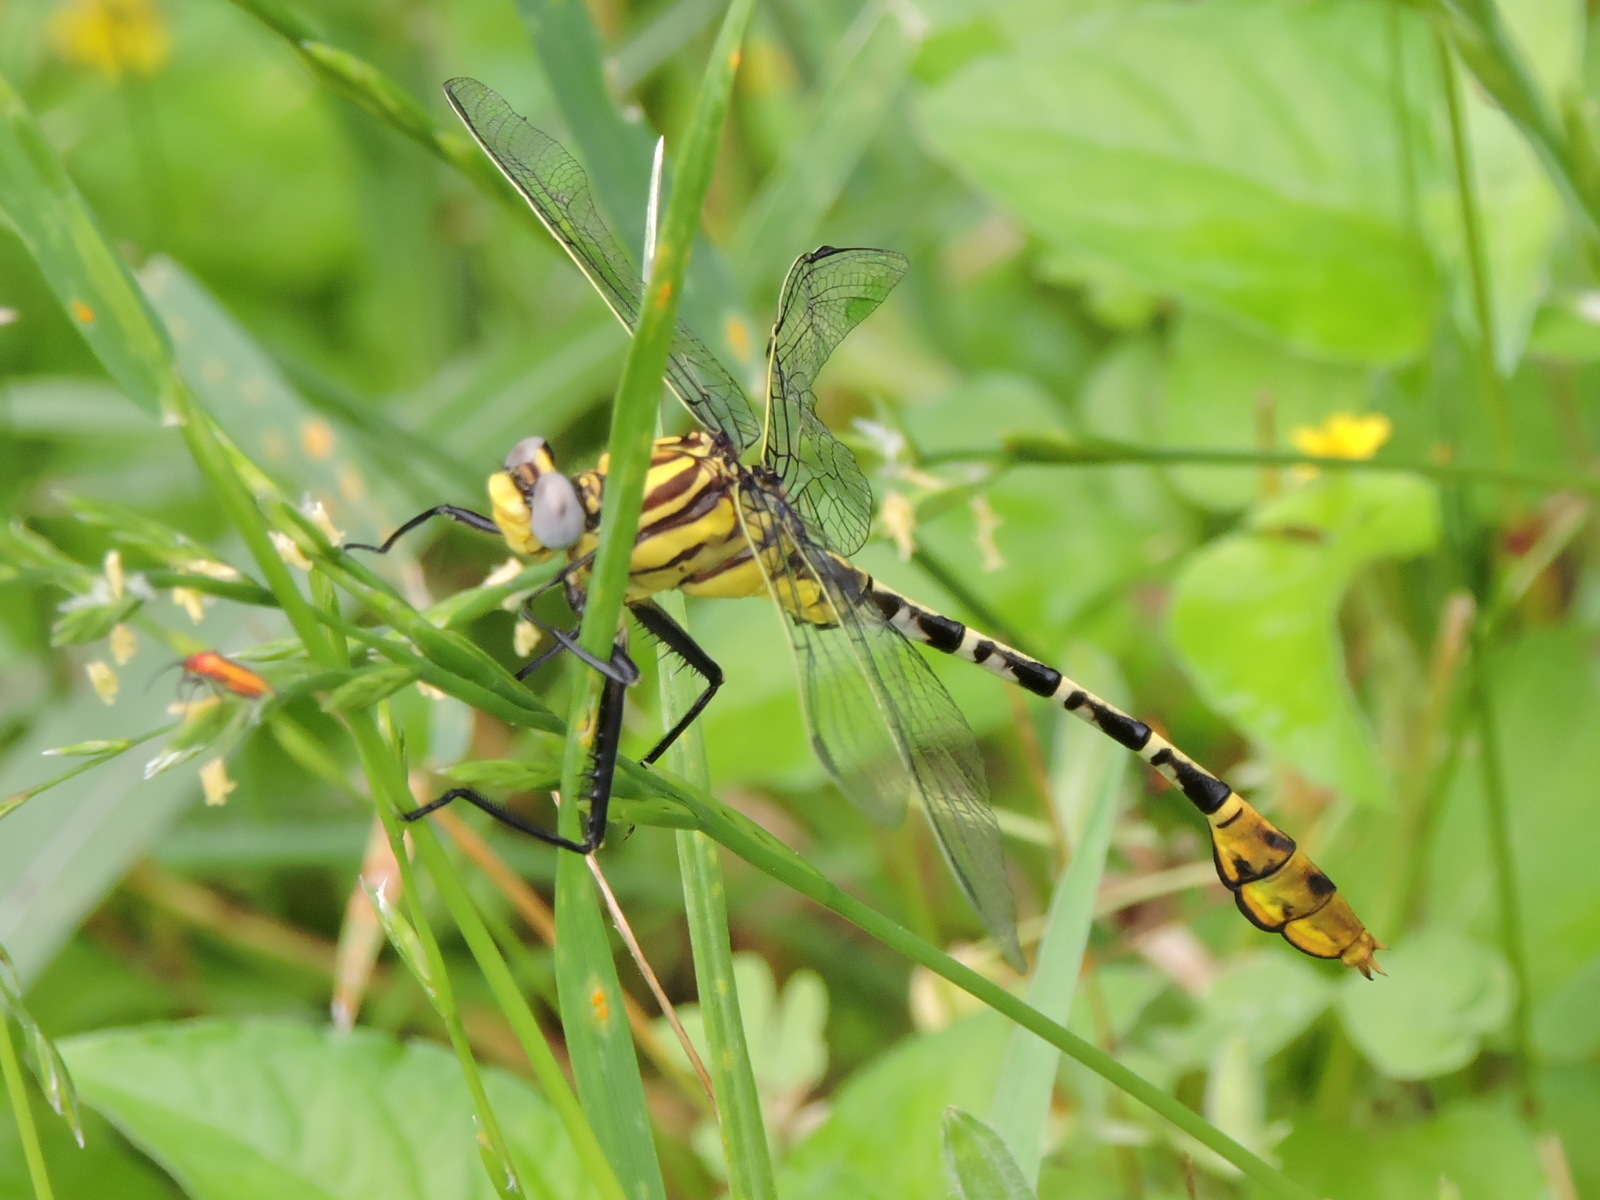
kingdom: Animalia
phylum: Arthropoda
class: Insecta
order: Odonata
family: Gomphidae
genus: Dromogomphus
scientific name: Dromogomphus spoliatus
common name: Flag-tailed spinyleg
